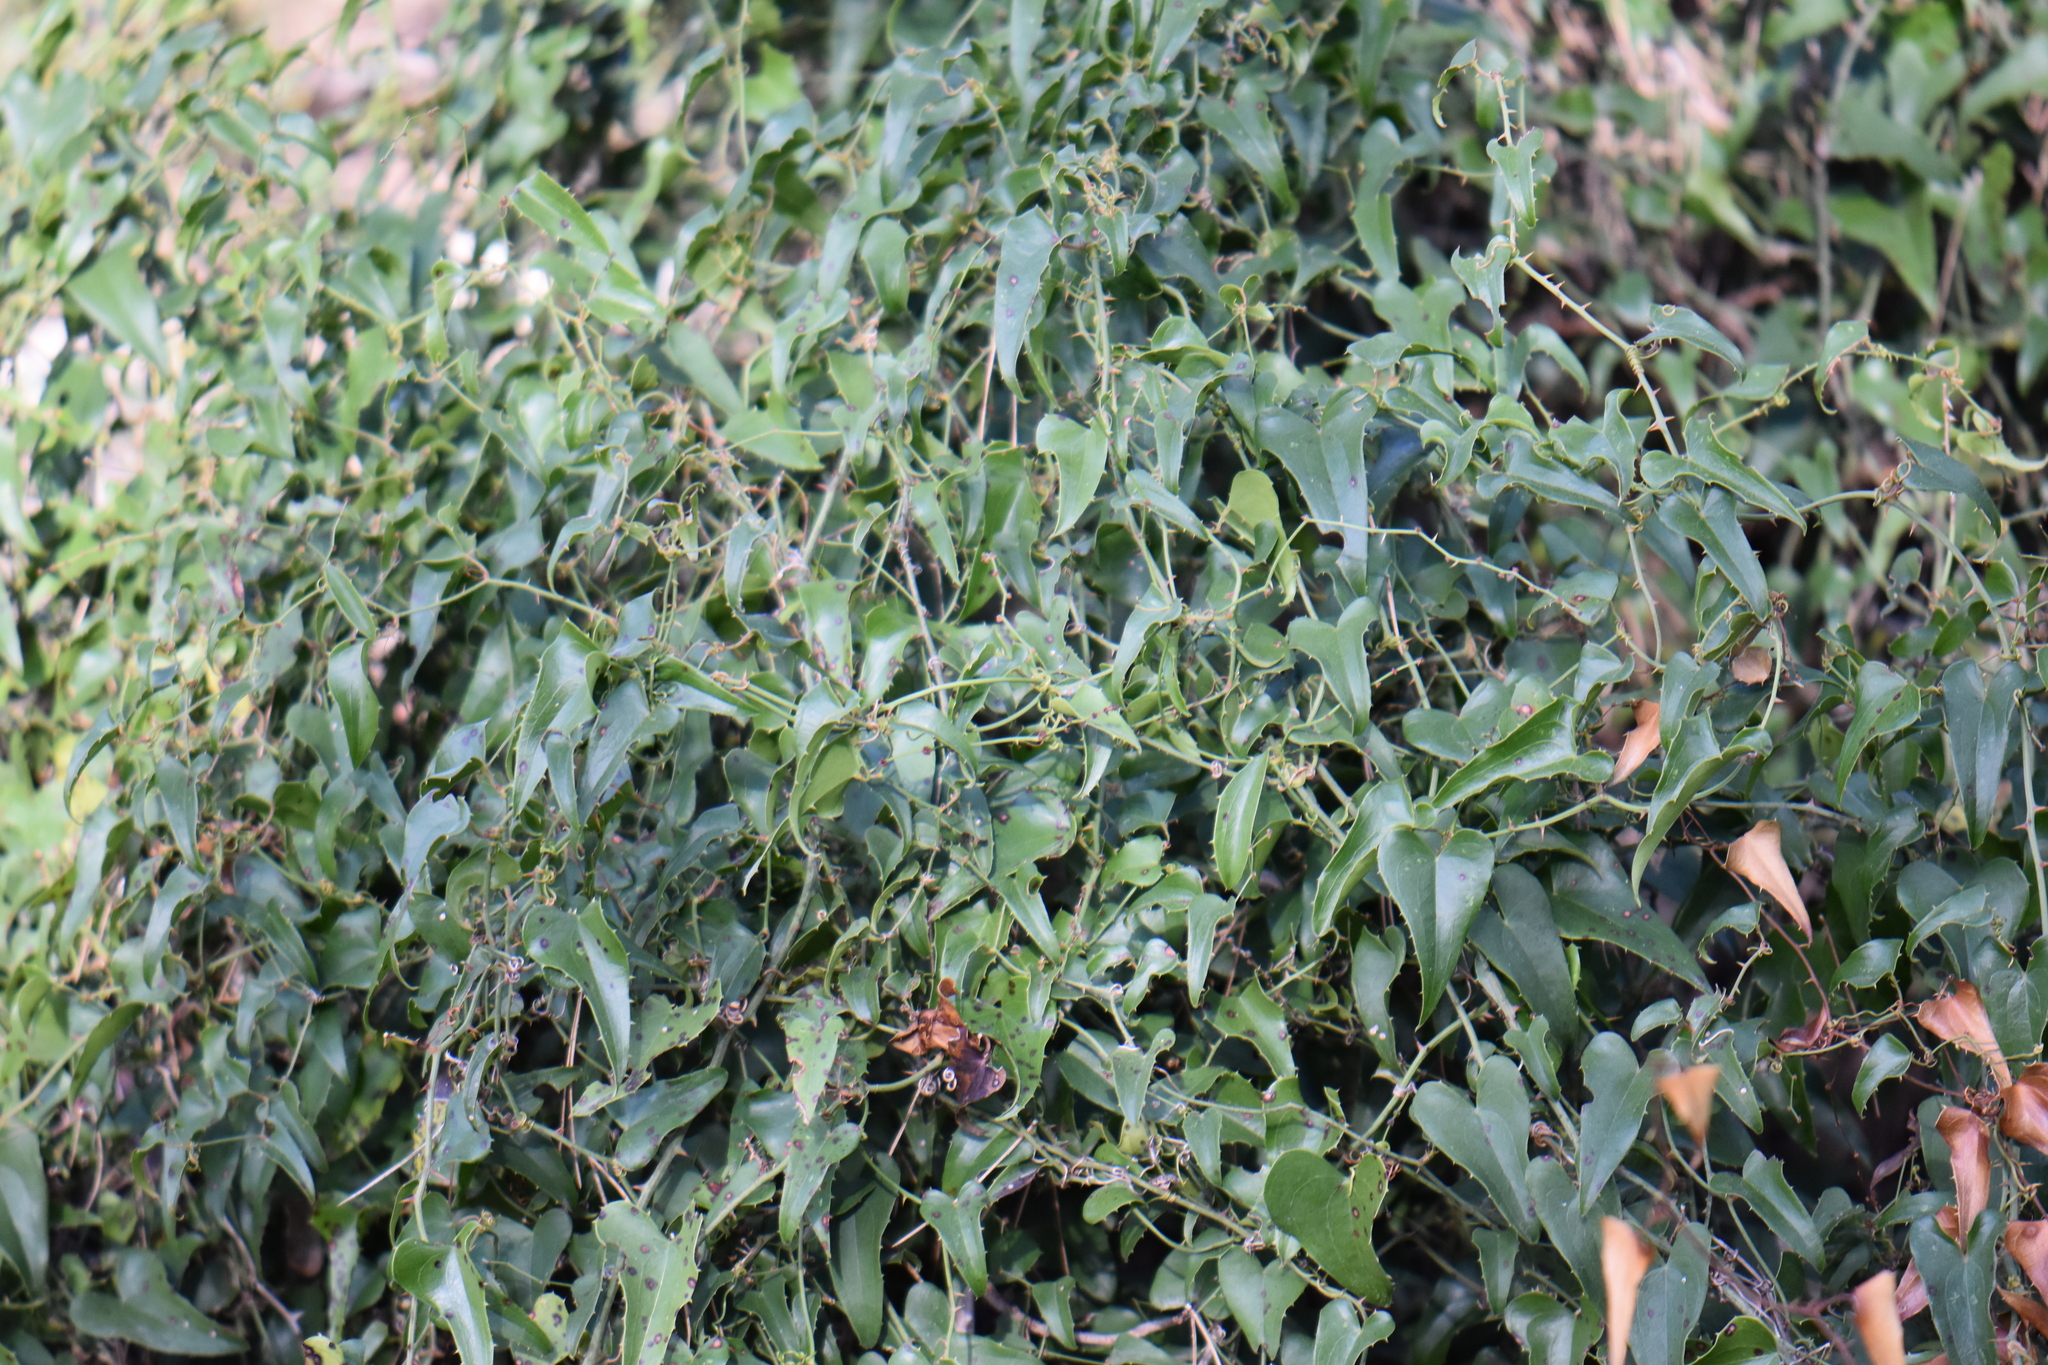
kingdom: Plantae
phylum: Tracheophyta
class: Liliopsida
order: Liliales
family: Smilacaceae
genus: Smilax
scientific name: Smilax aspera
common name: Common smilax
